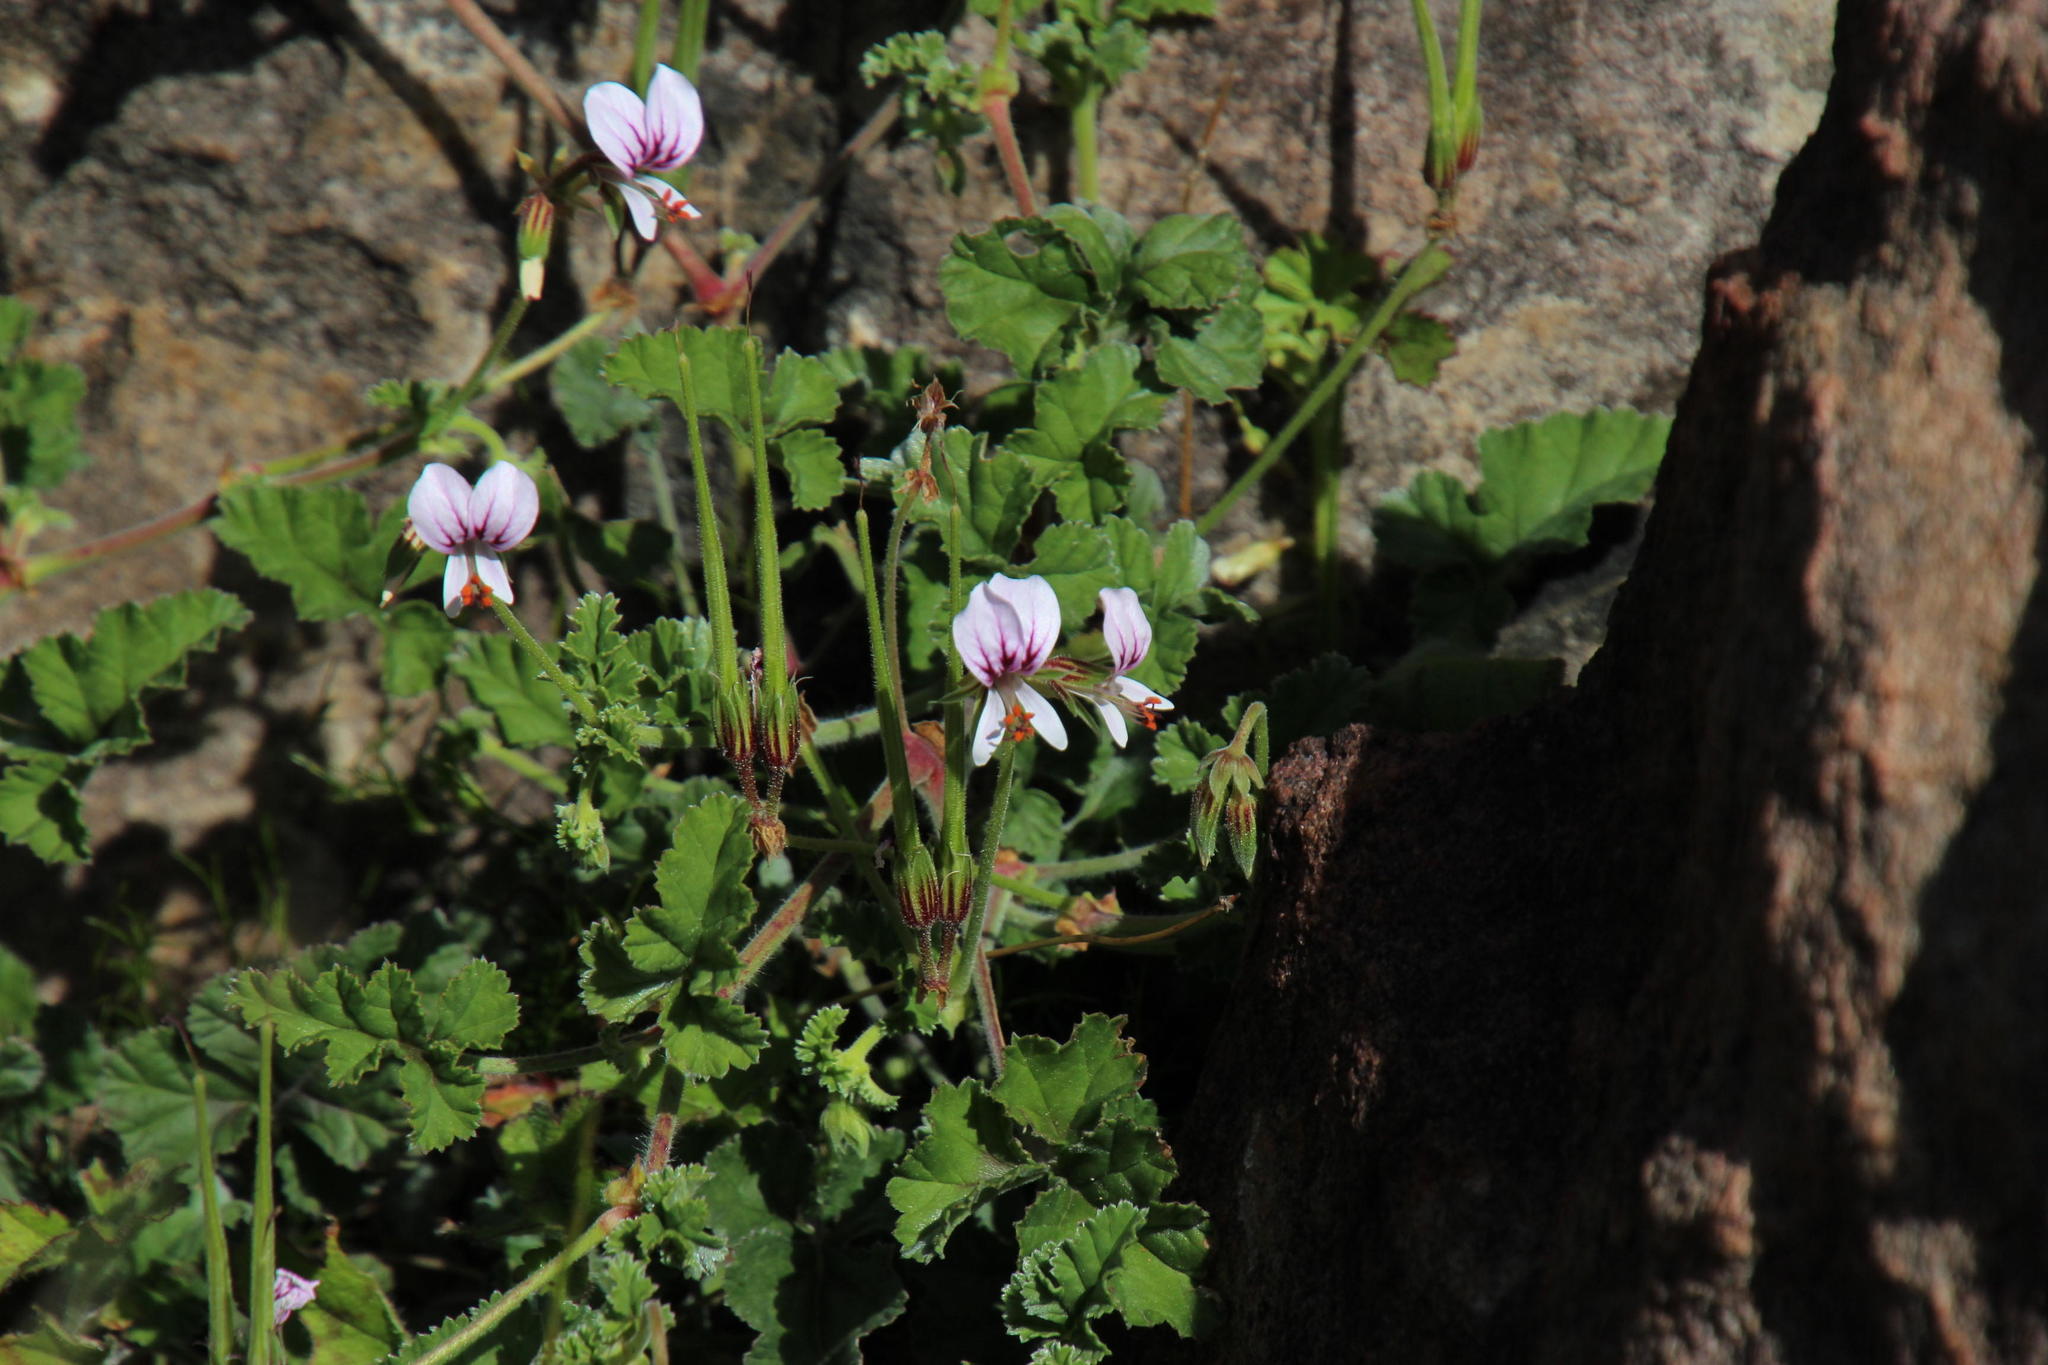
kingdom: Plantae
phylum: Tracheophyta
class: Magnoliopsida
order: Geraniales
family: Geraniaceae
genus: Pelargonium
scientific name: Pelargonium candicans
